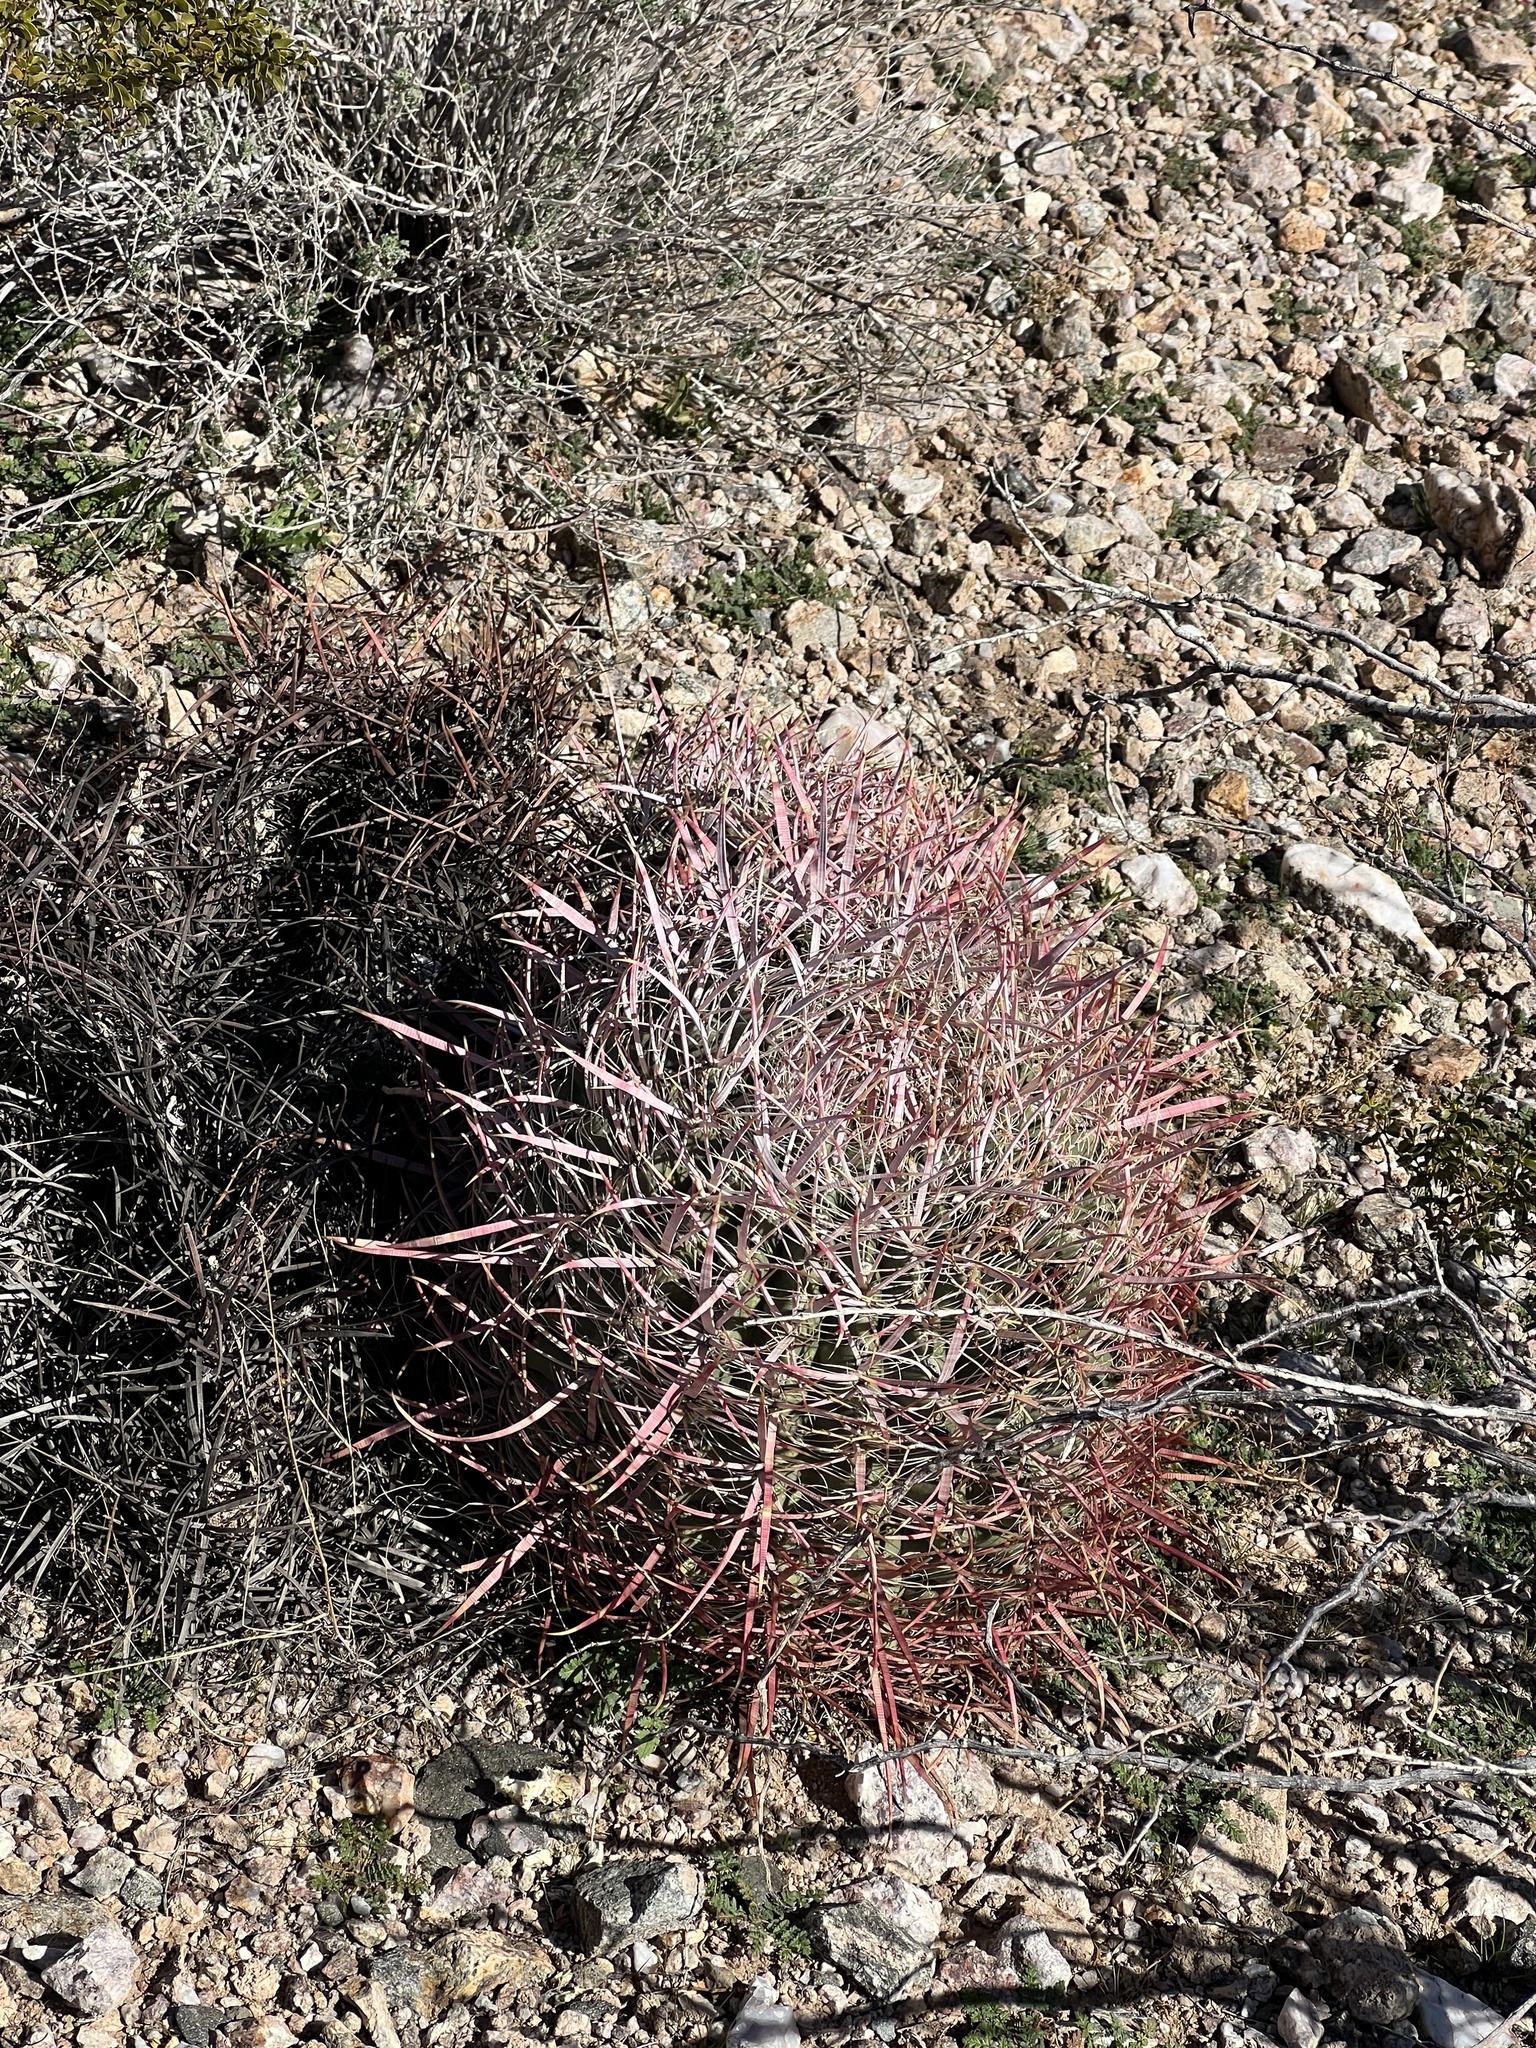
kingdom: Plantae
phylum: Tracheophyta
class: Magnoliopsida
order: Caryophyllales
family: Cactaceae
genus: Ferocactus
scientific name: Ferocactus cylindraceus
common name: California barrel cactus
